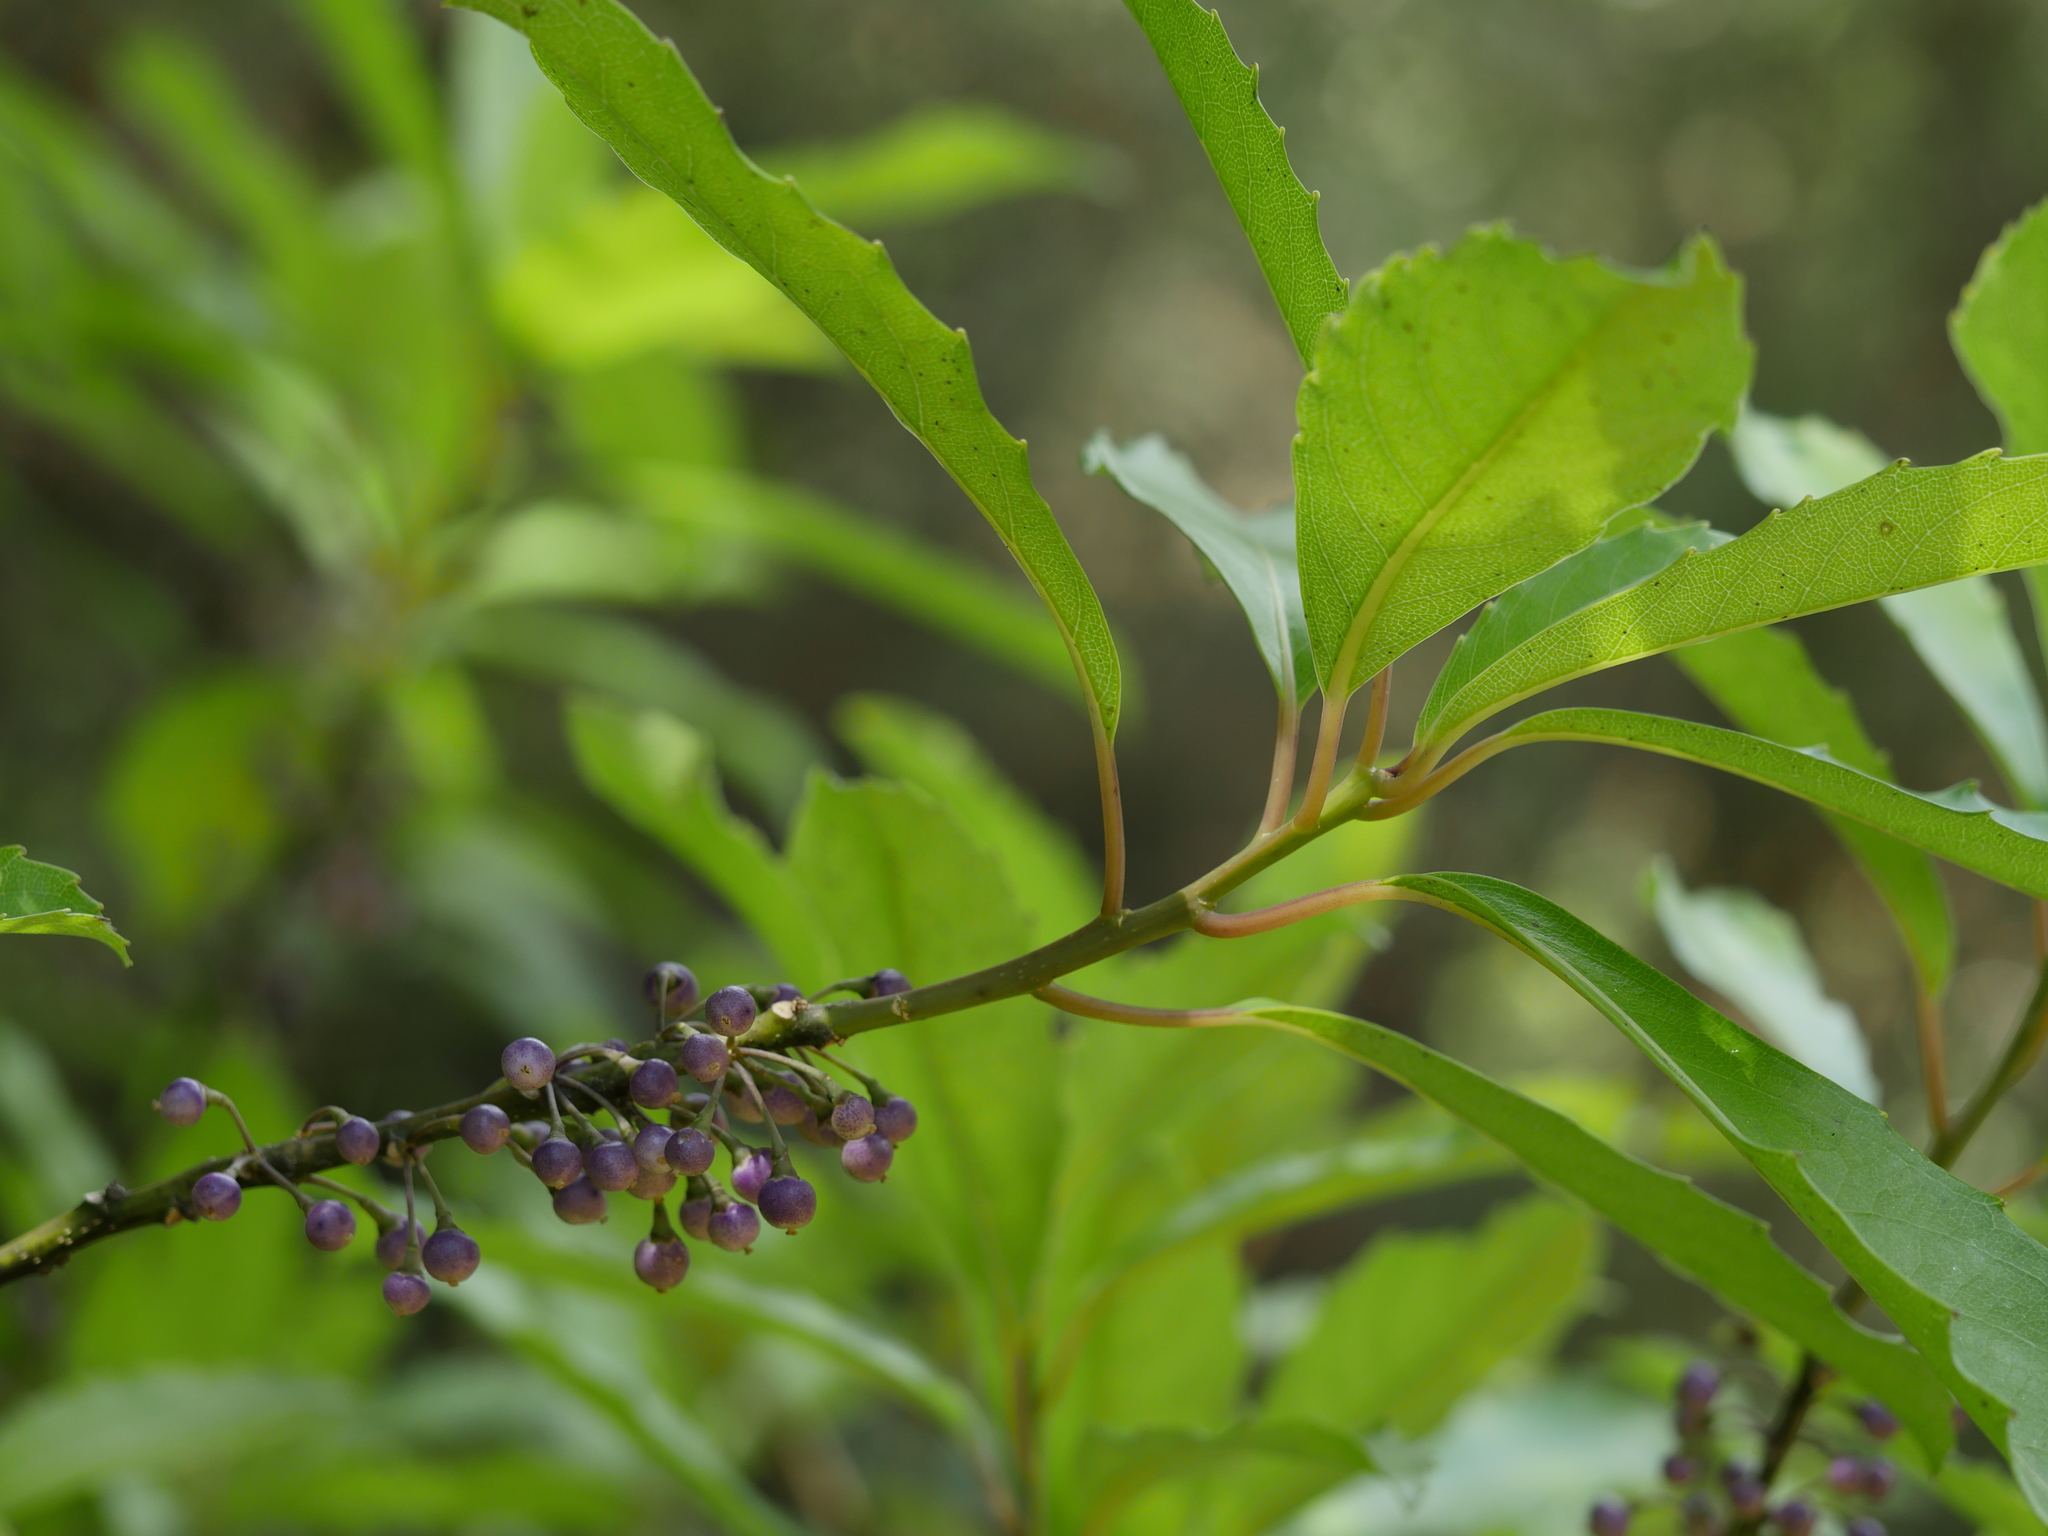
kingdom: Plantae
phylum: Tracheophyta
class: Magnoliopsida
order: Malpighiales
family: Violaceae
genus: Melicytus
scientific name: Melicytus macrophyllus
